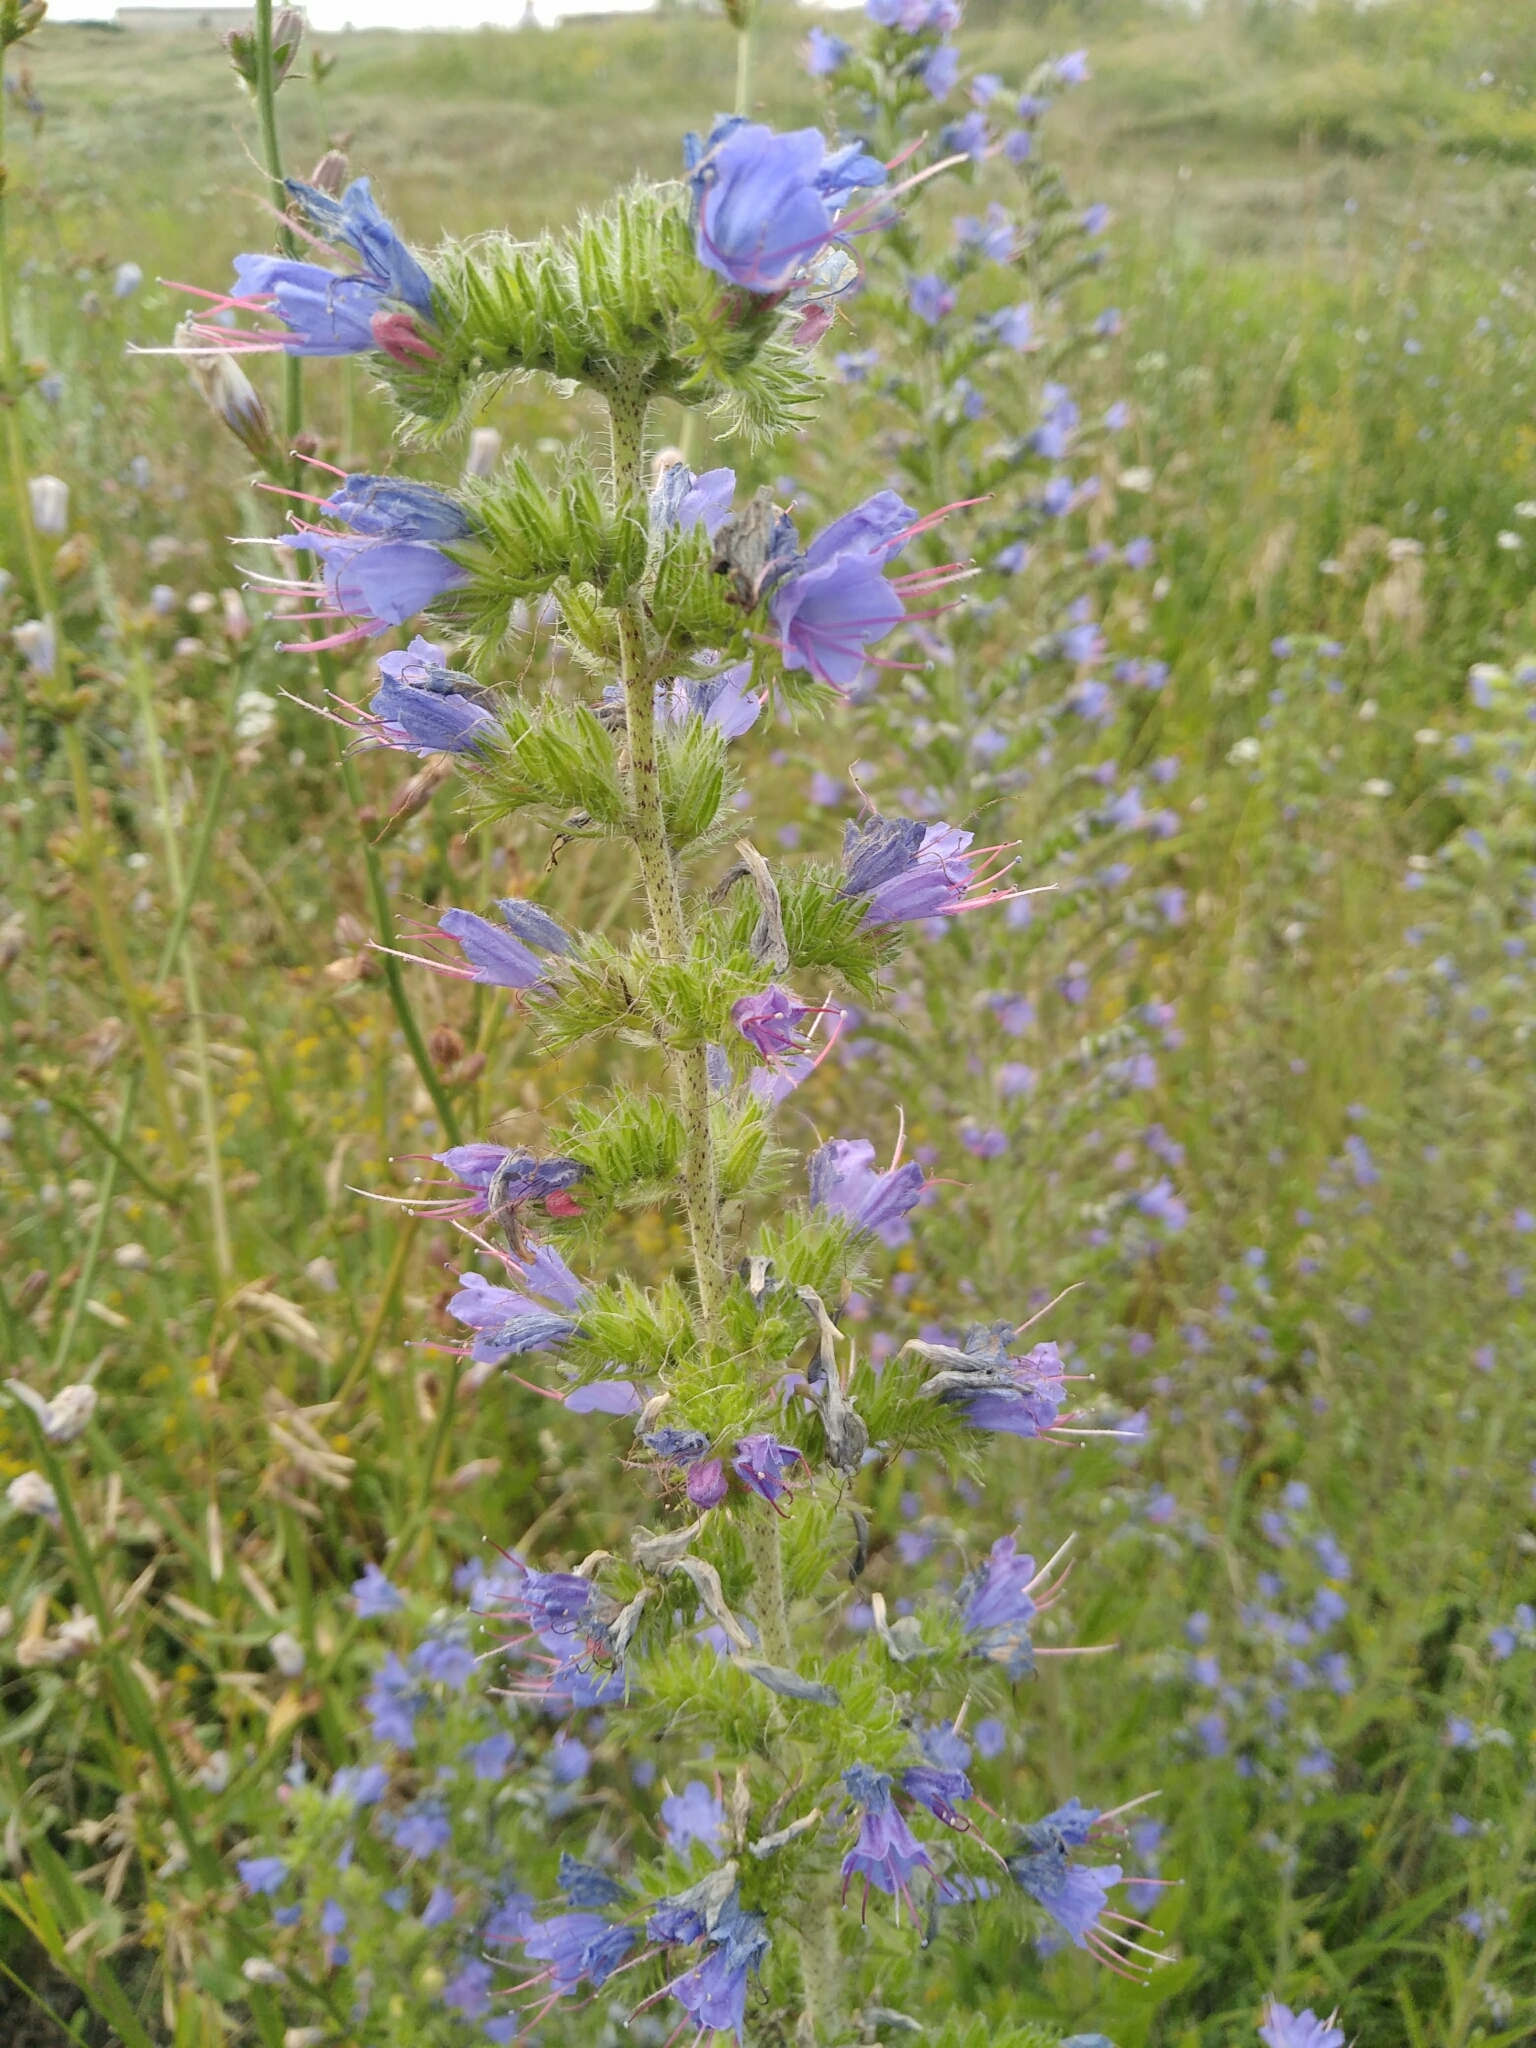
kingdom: Plantae
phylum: Tracheophyta
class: Magnoliopsida
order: Boraginales
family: Boraginaceae
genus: Echium
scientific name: Echium vulgare
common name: Common viper's bugloss
